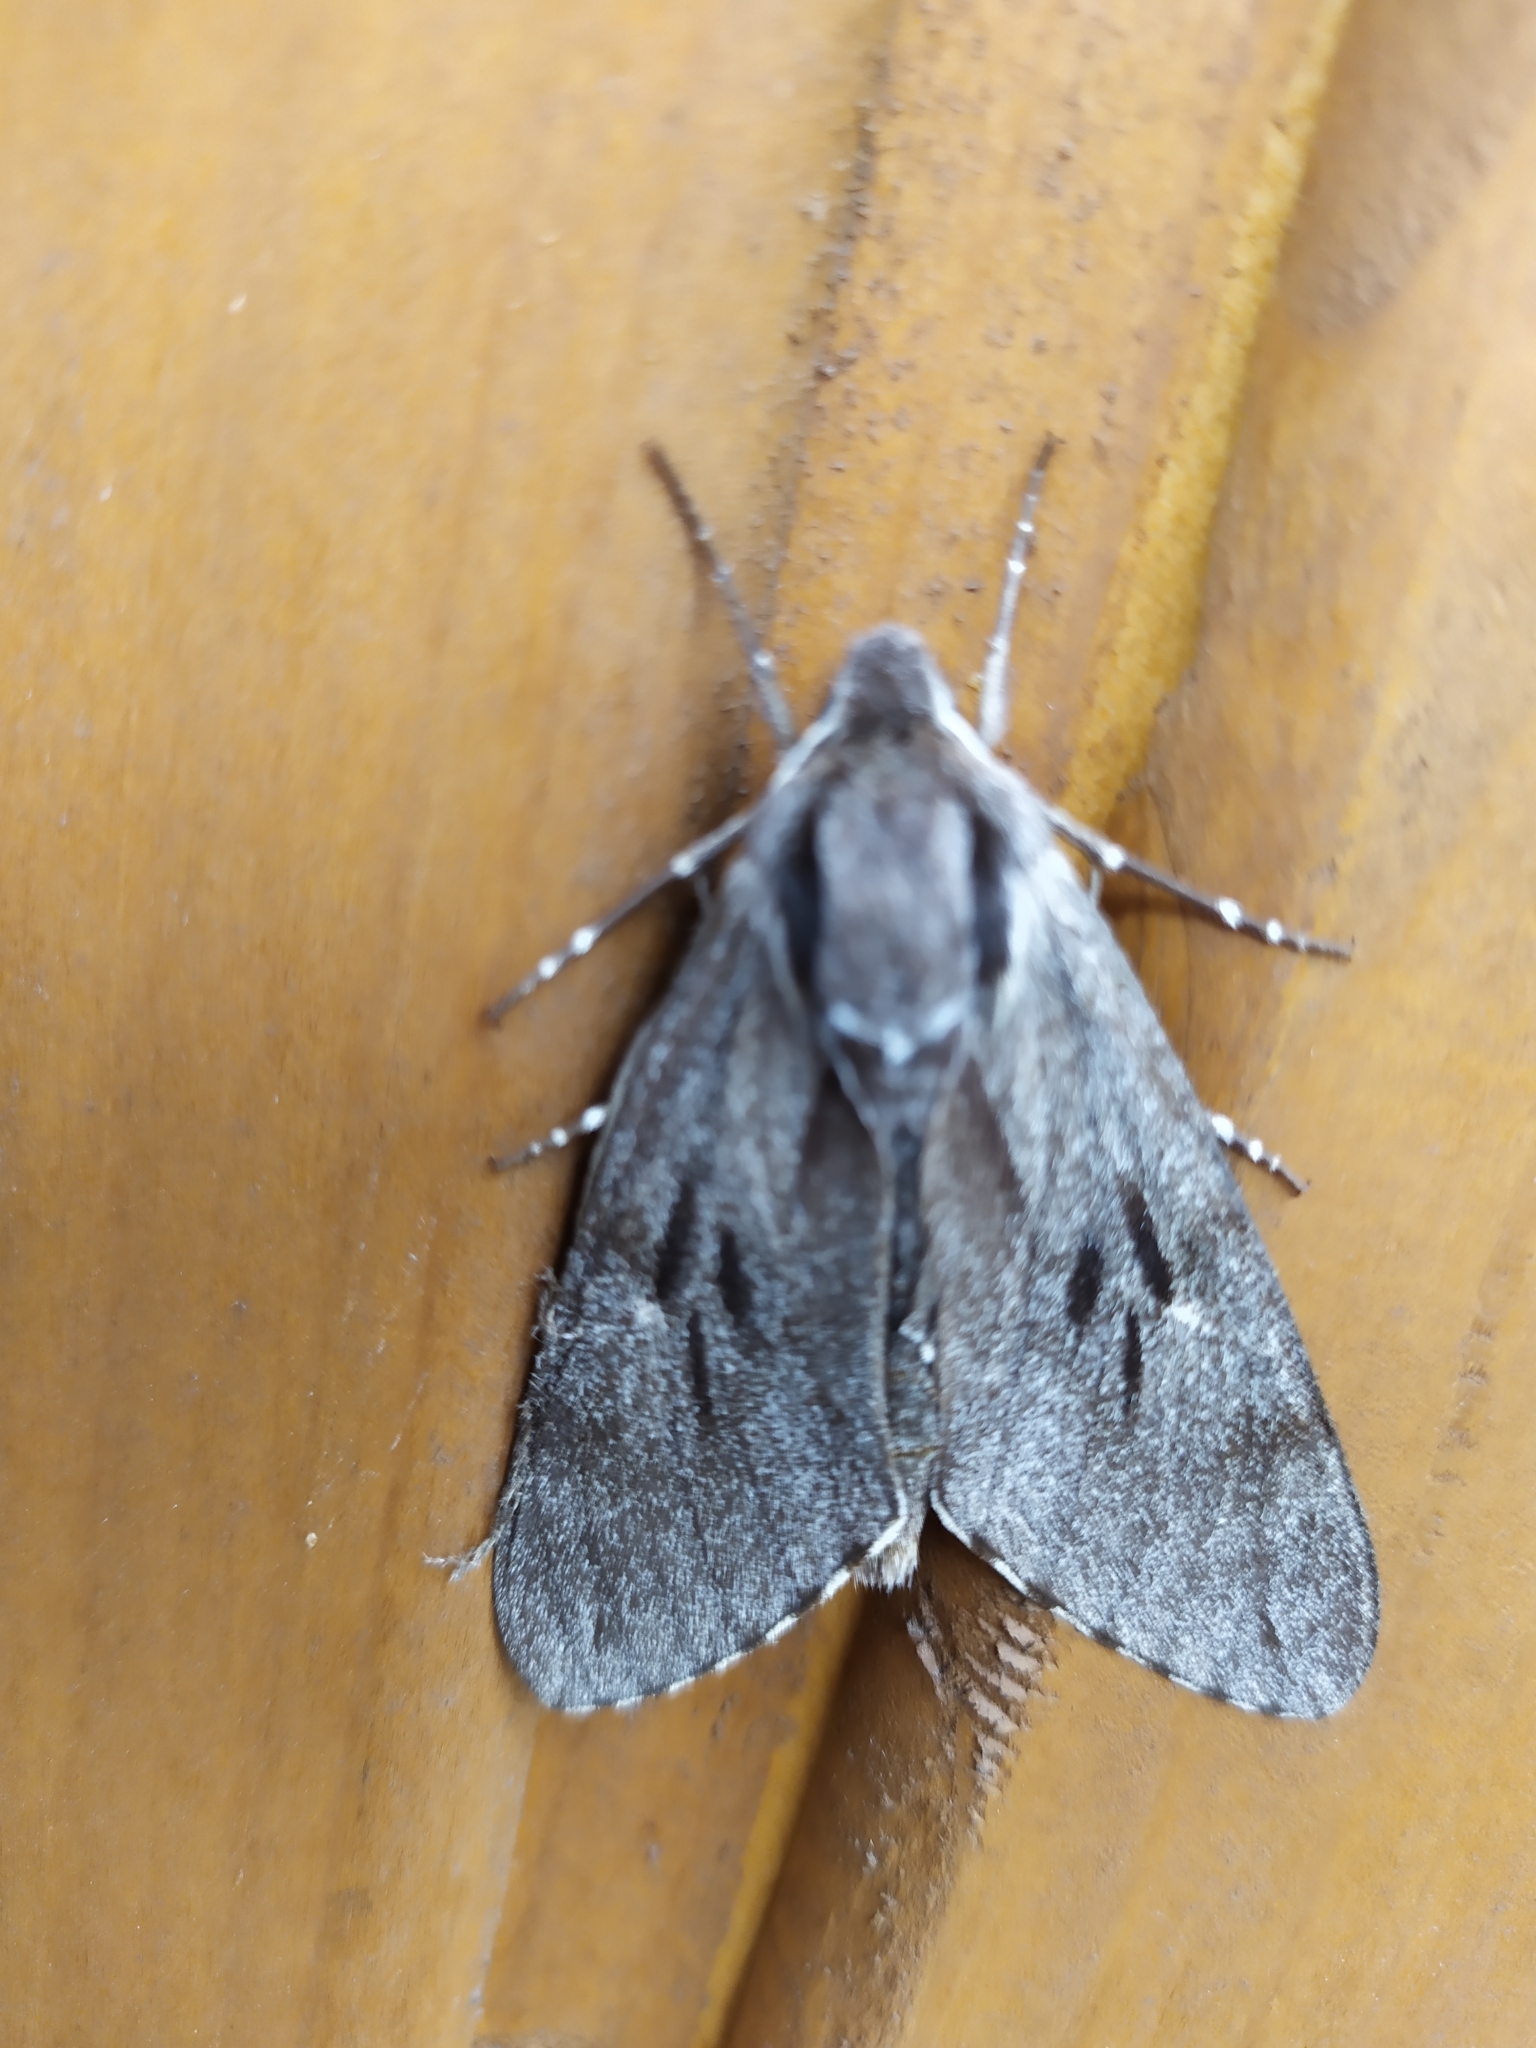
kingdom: Animalia
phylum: Arthropoda
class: Insecta
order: Lepidoptera
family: Sphingidae
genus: Sphinx
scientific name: Sphinx pinastri
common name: Pine hawk-moth
